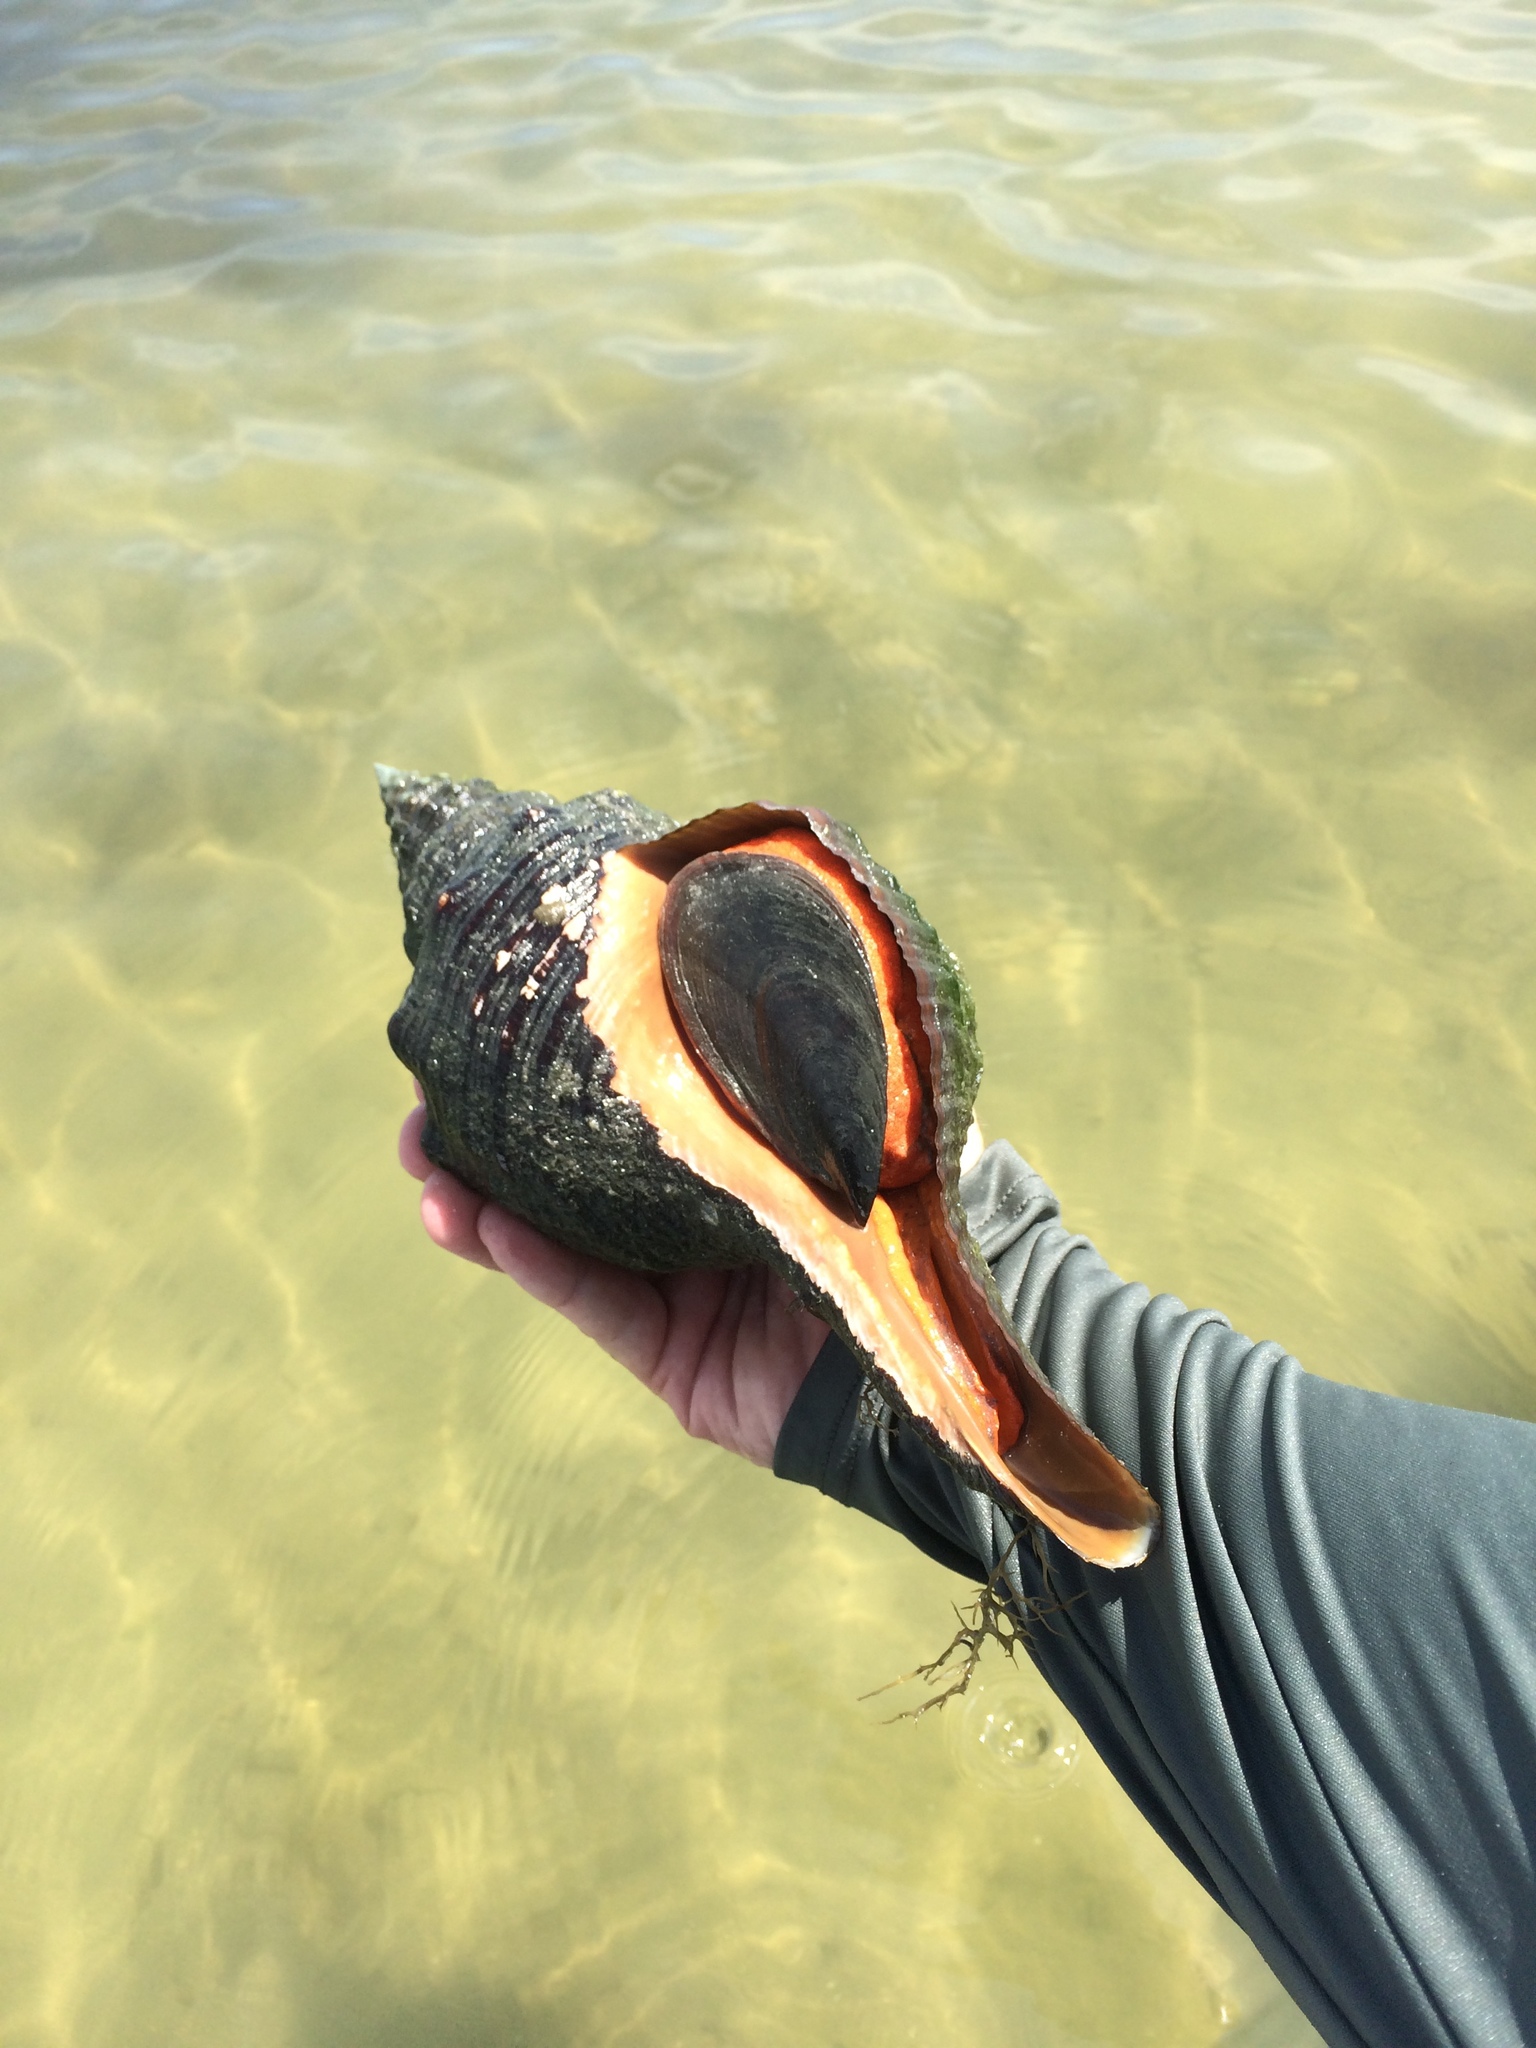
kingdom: Animalia
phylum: Mollusca
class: Gastropoda
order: Neogastropoda
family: Fasciolariidae
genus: Triplofusus
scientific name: Triplofusus giganteus
